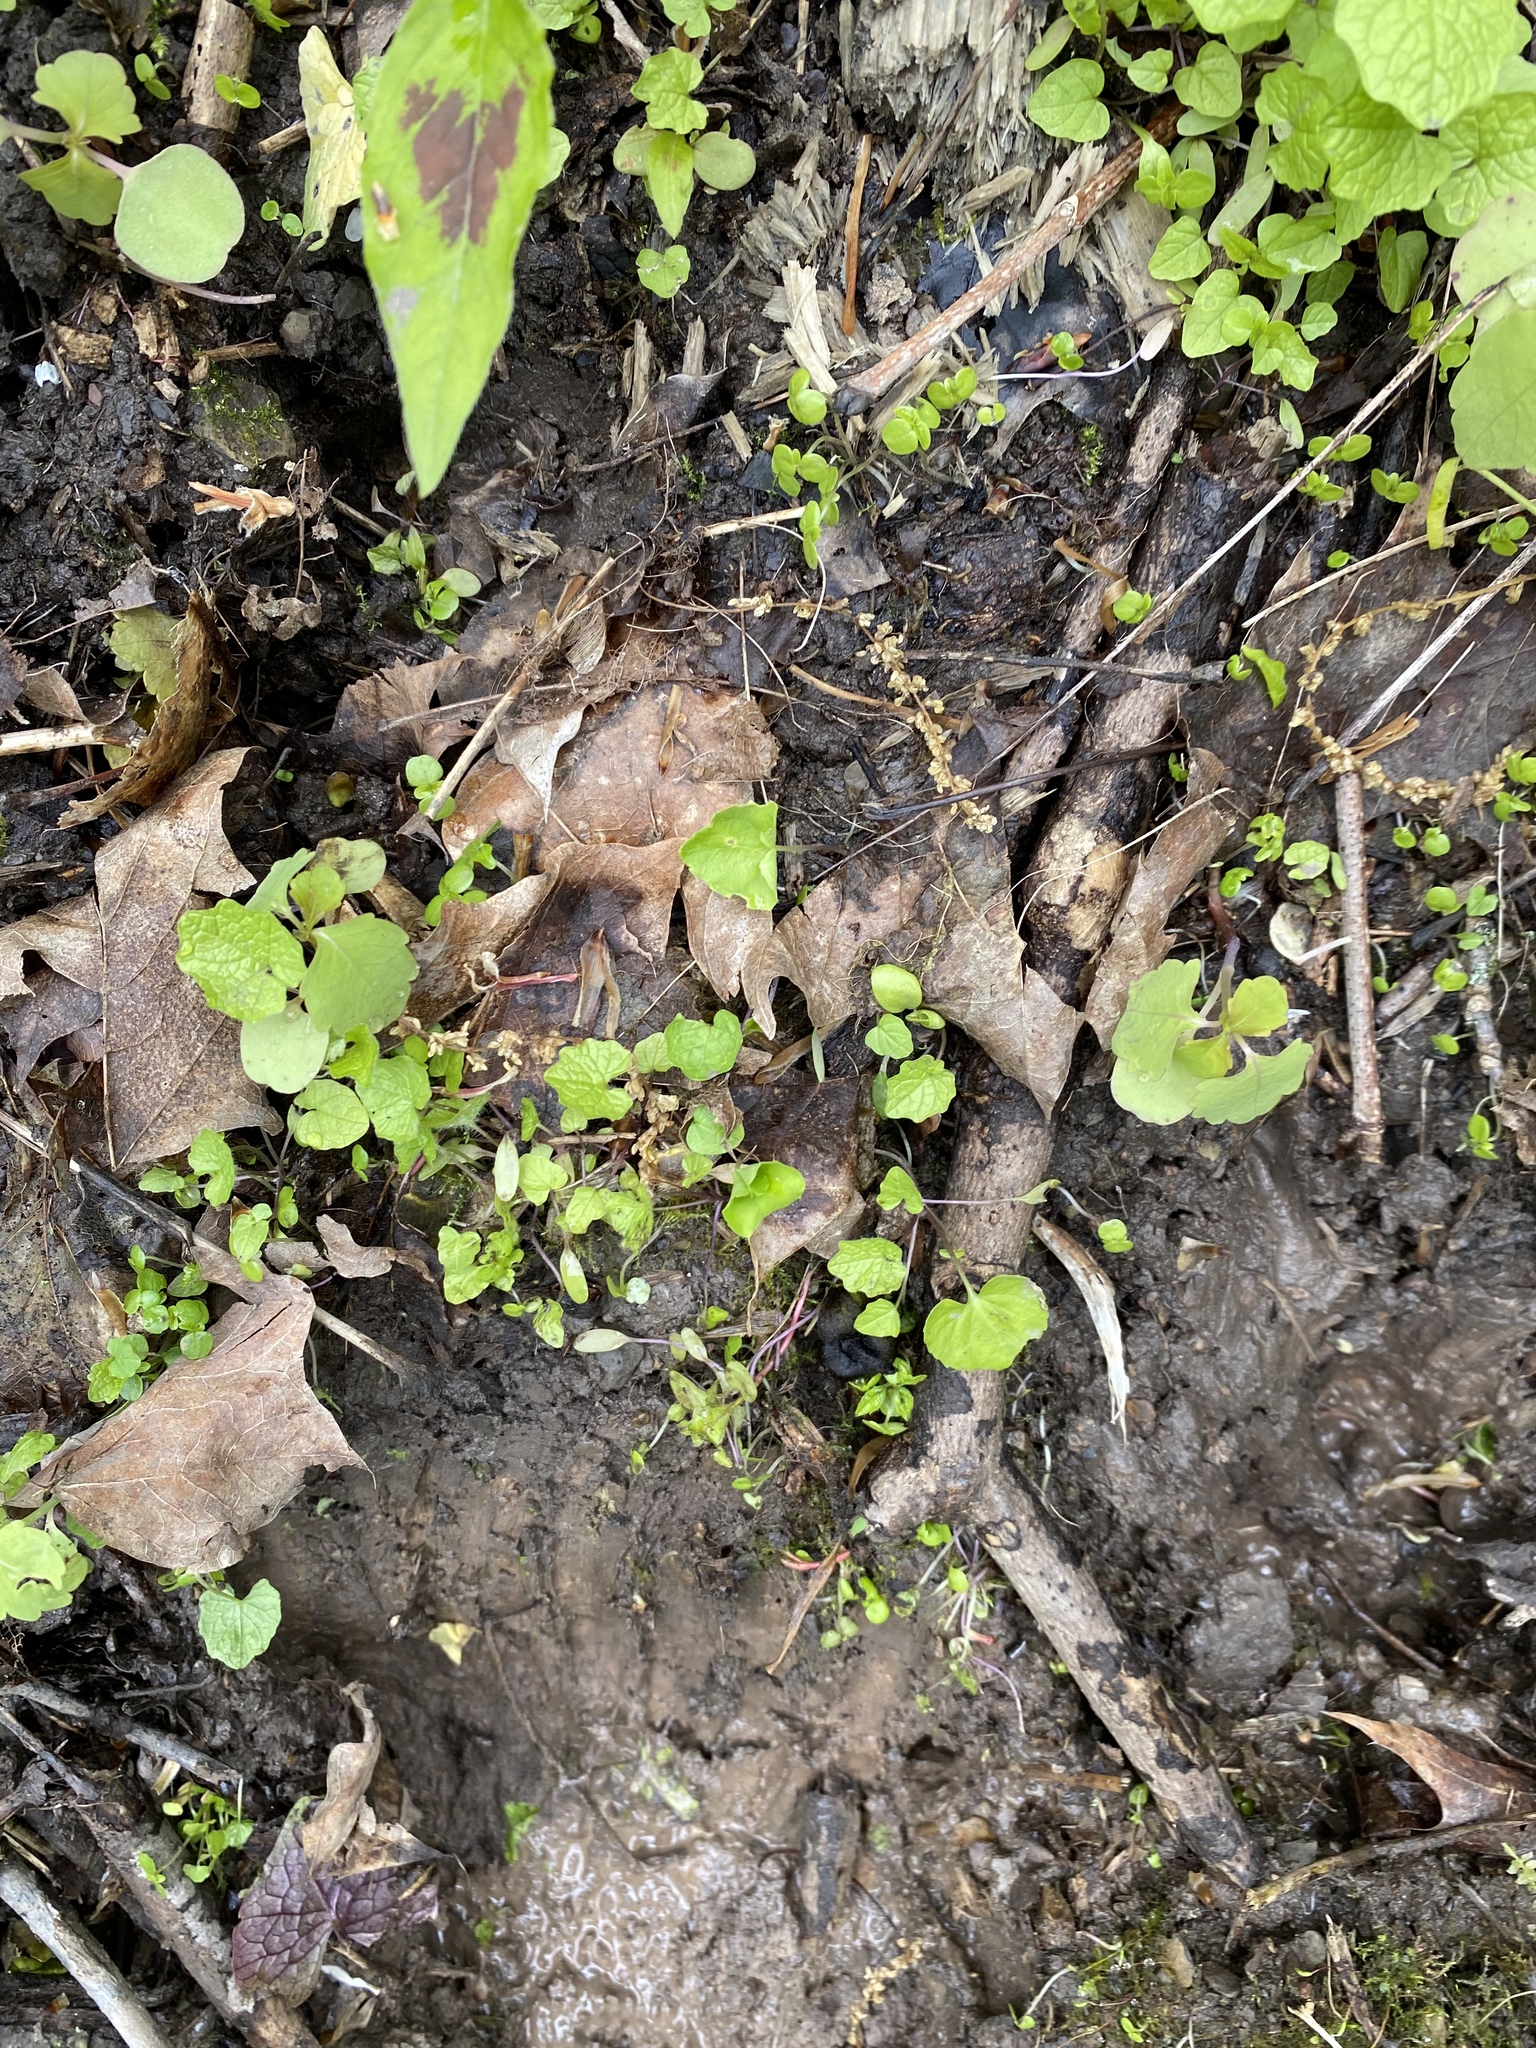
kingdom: Plantae
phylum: Tracheophyta
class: Magnoliopsida
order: Brassicales
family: Brassicaceae
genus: Alliaria
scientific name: Alliaria petiolata
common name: Garlic mustard
